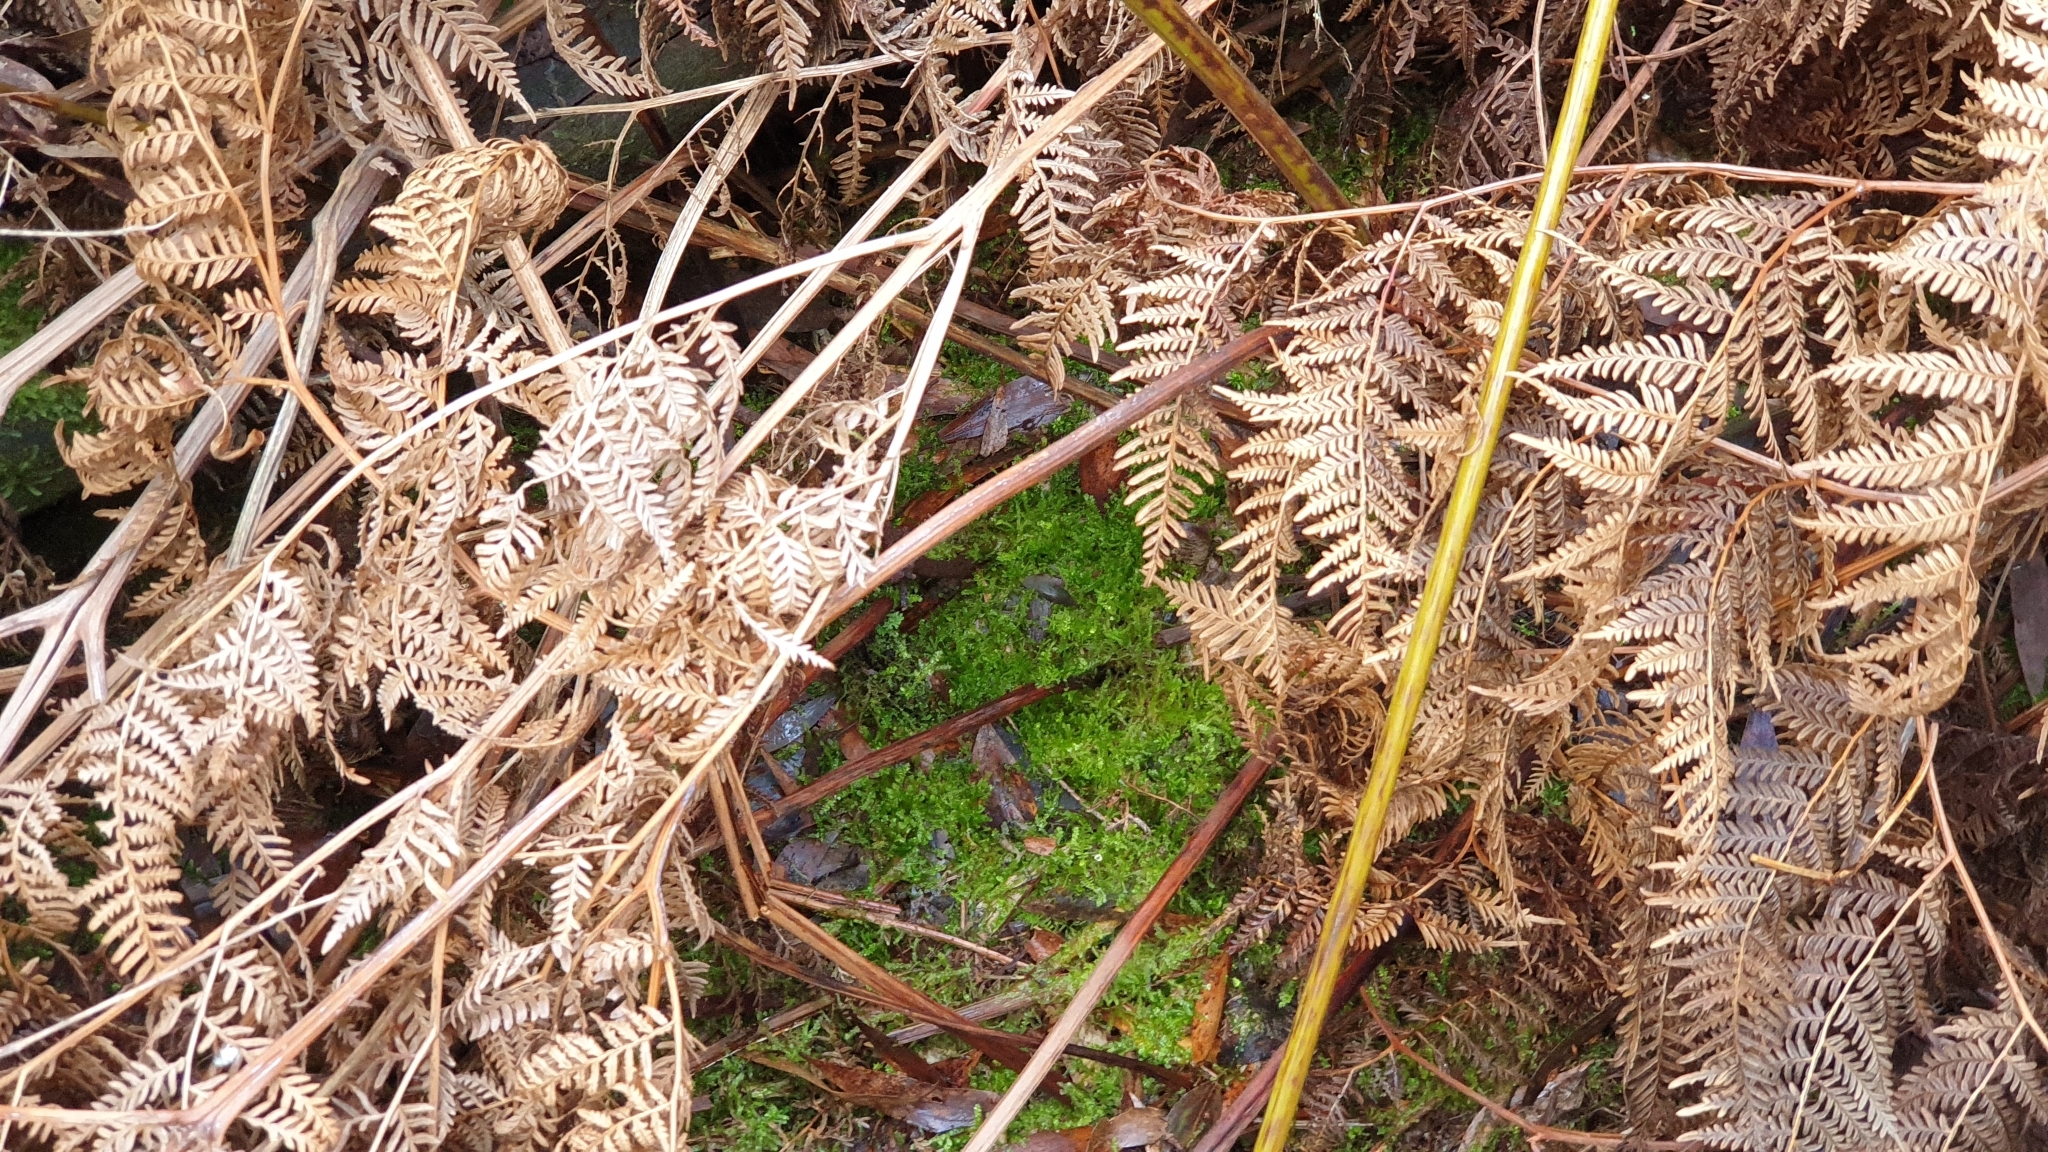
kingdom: Plantae
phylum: Bryophyta
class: Bryopsida
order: Hypnales
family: Brachytheciaceae
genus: Rhynchostegium
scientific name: Rhynchostegium tenuifolium
